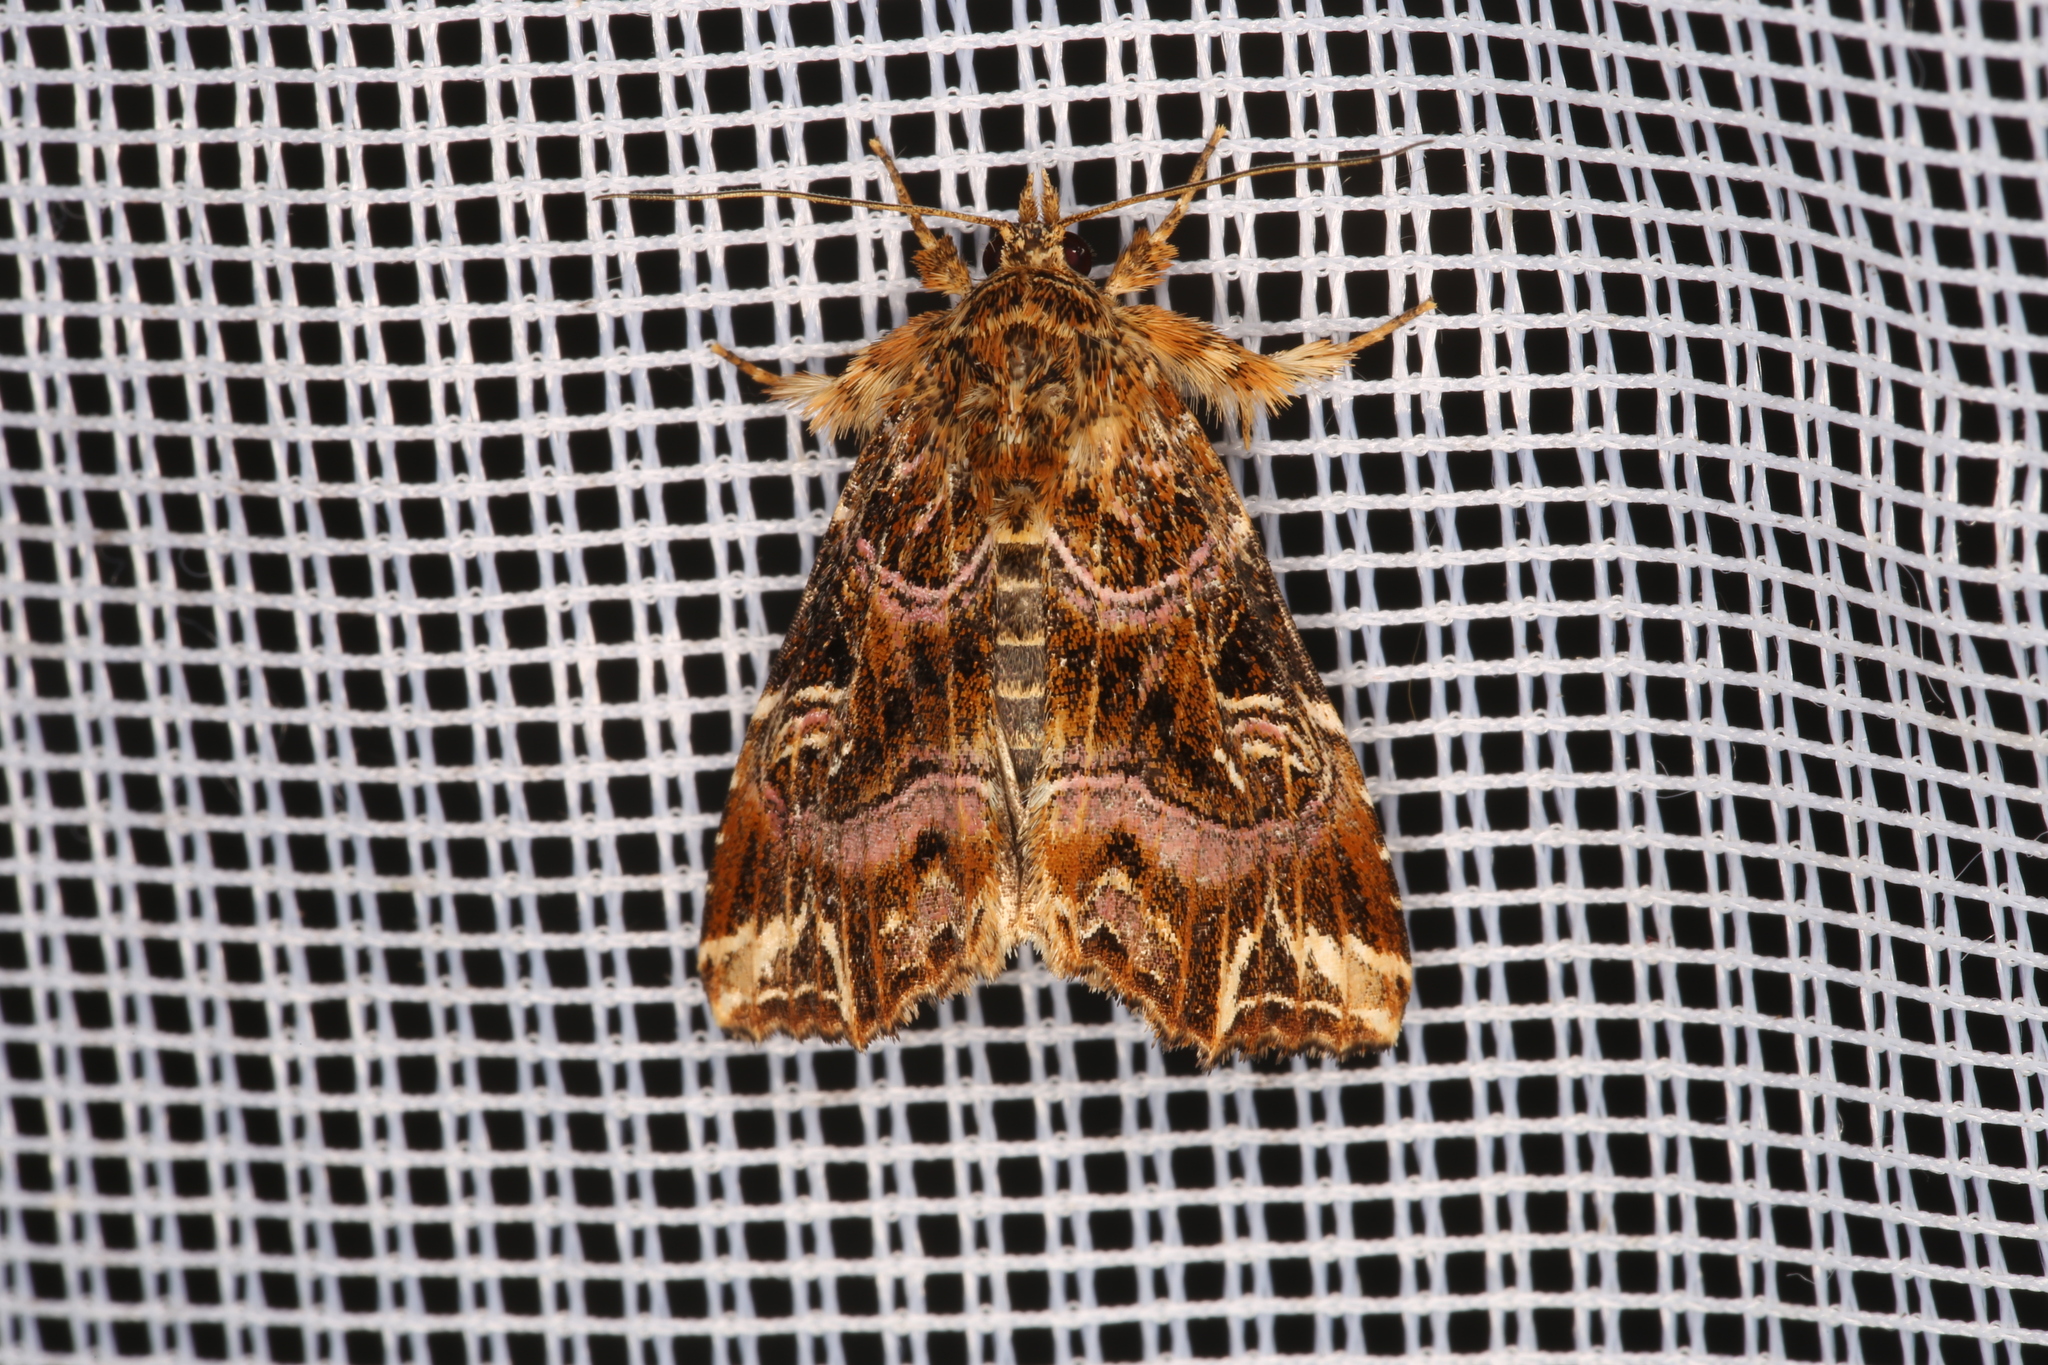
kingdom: Animalia
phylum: Arthropoda
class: Insecta
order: Lepidoptera
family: Noctuidae
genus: Callopistria
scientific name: Callopistria juventina
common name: Latin
